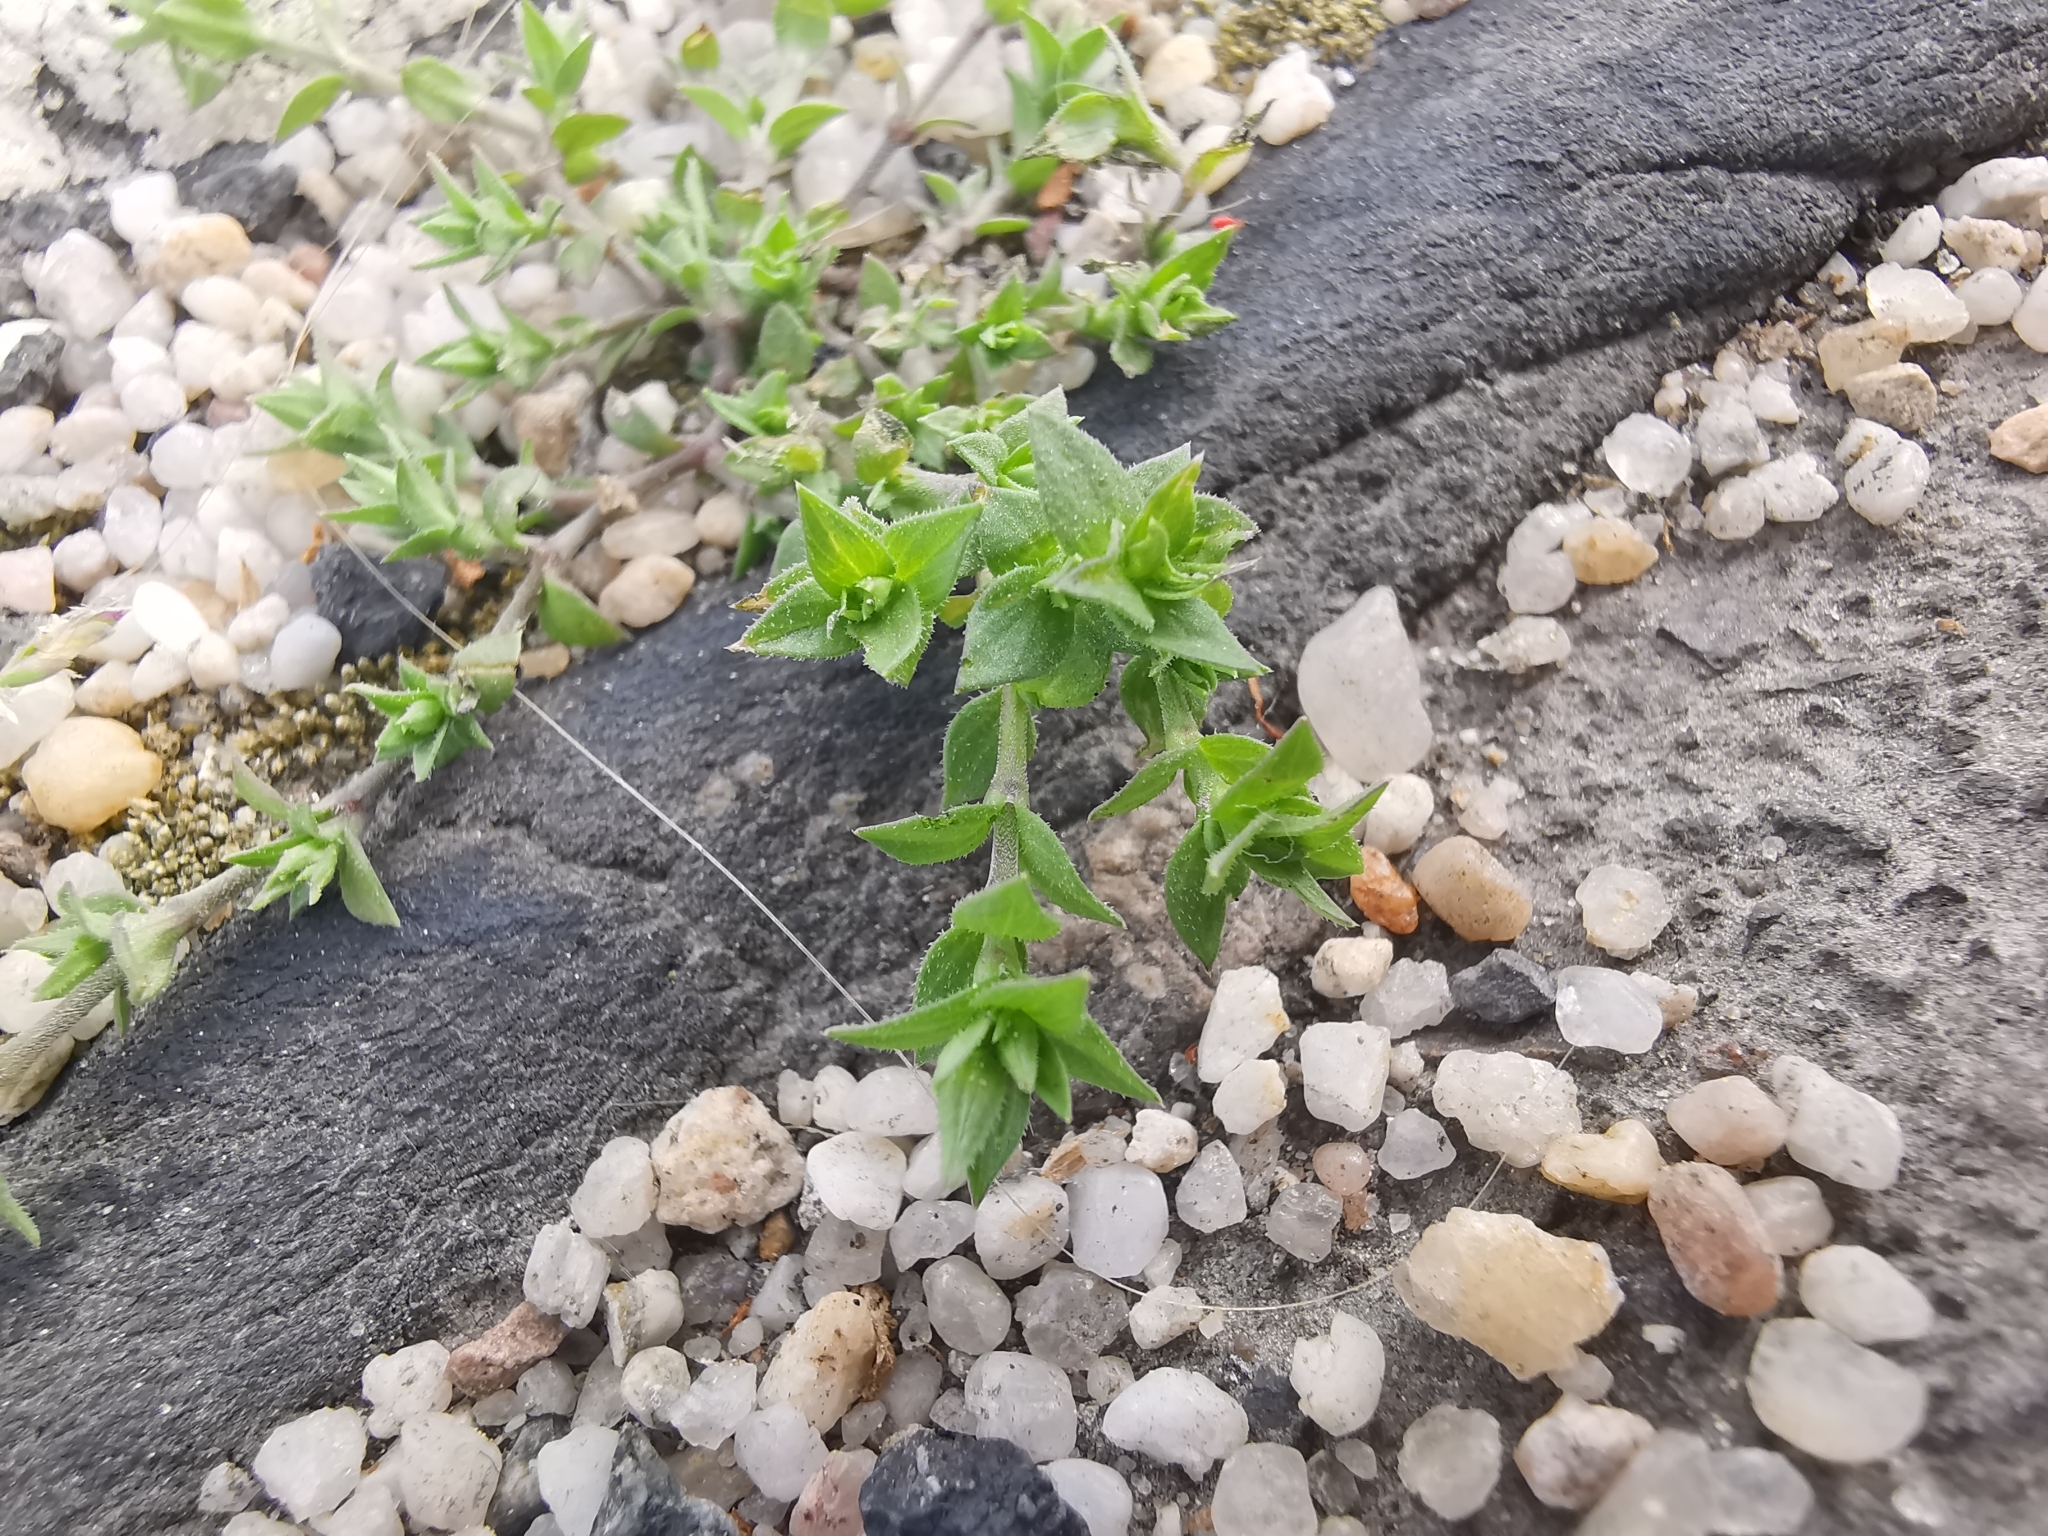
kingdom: Plantae
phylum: Tracheophyta
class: Magnoliopsida
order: Caryophyllales
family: Caryophyllaceae
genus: Arenaria
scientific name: Arenaria serpyllifolia
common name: Thyme-leaved sandwort
